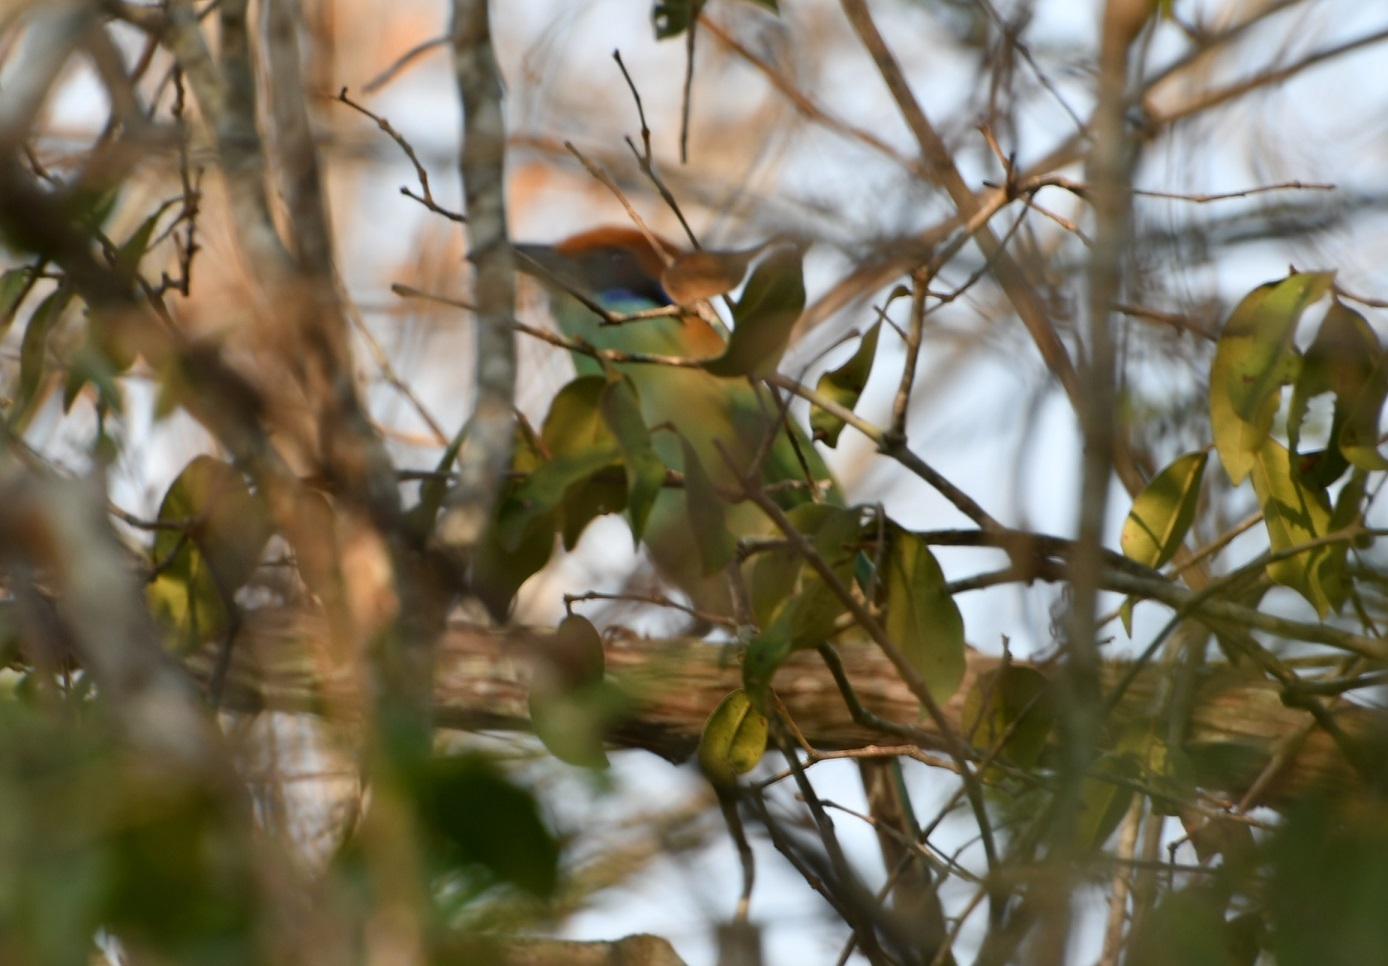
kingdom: Animalia
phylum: Chordata
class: Aves
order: Coraciiformes
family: Momotidae
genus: Momotus
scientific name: Momotus mexicanus
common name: Russet-crowned motmot
